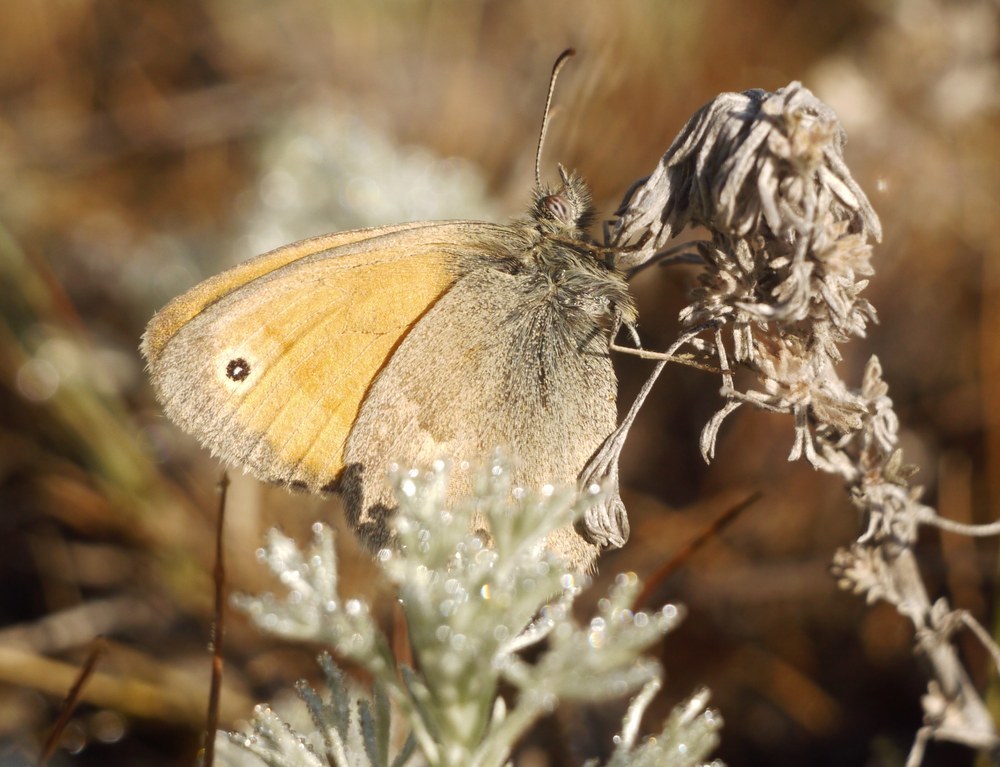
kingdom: Animalia
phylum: Arthropoda
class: Insecta
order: Lepidoptera
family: Nymphalidae
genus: Coenonympha
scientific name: Coenonympha pamphilus
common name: Small heath
